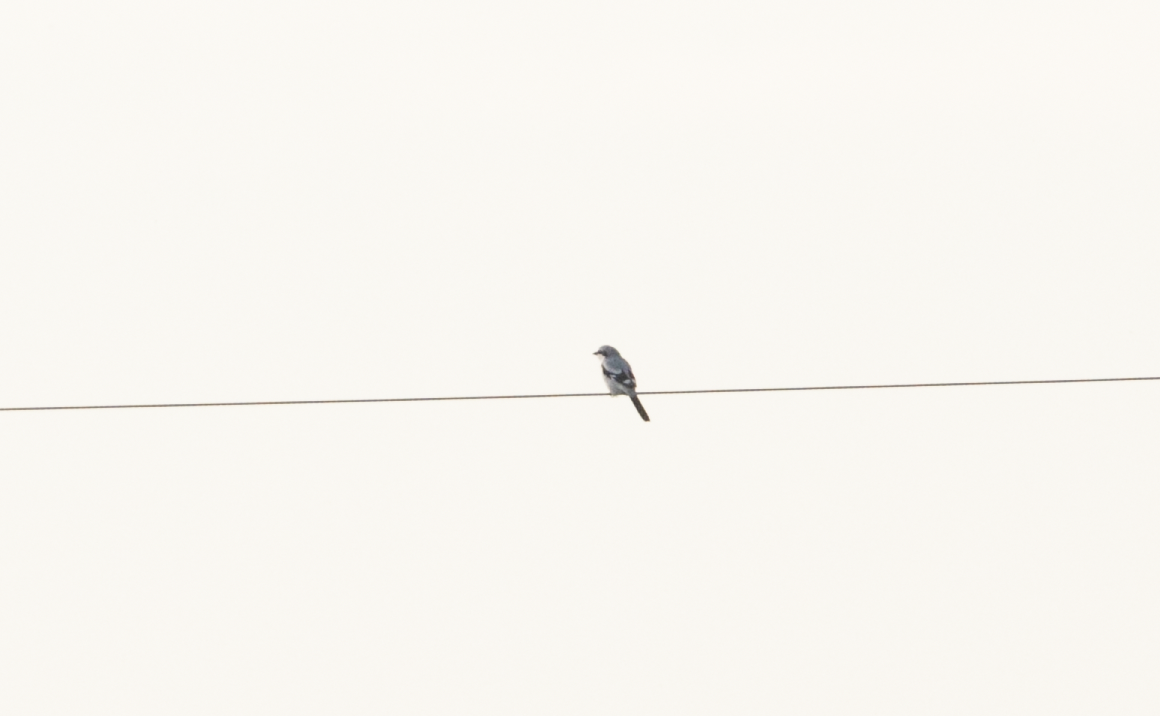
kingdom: Animalia
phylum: Chordata
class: Aves
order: Passeriformes
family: Laniidae
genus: Lanius
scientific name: Lanius excubitor
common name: Great grey shrike
